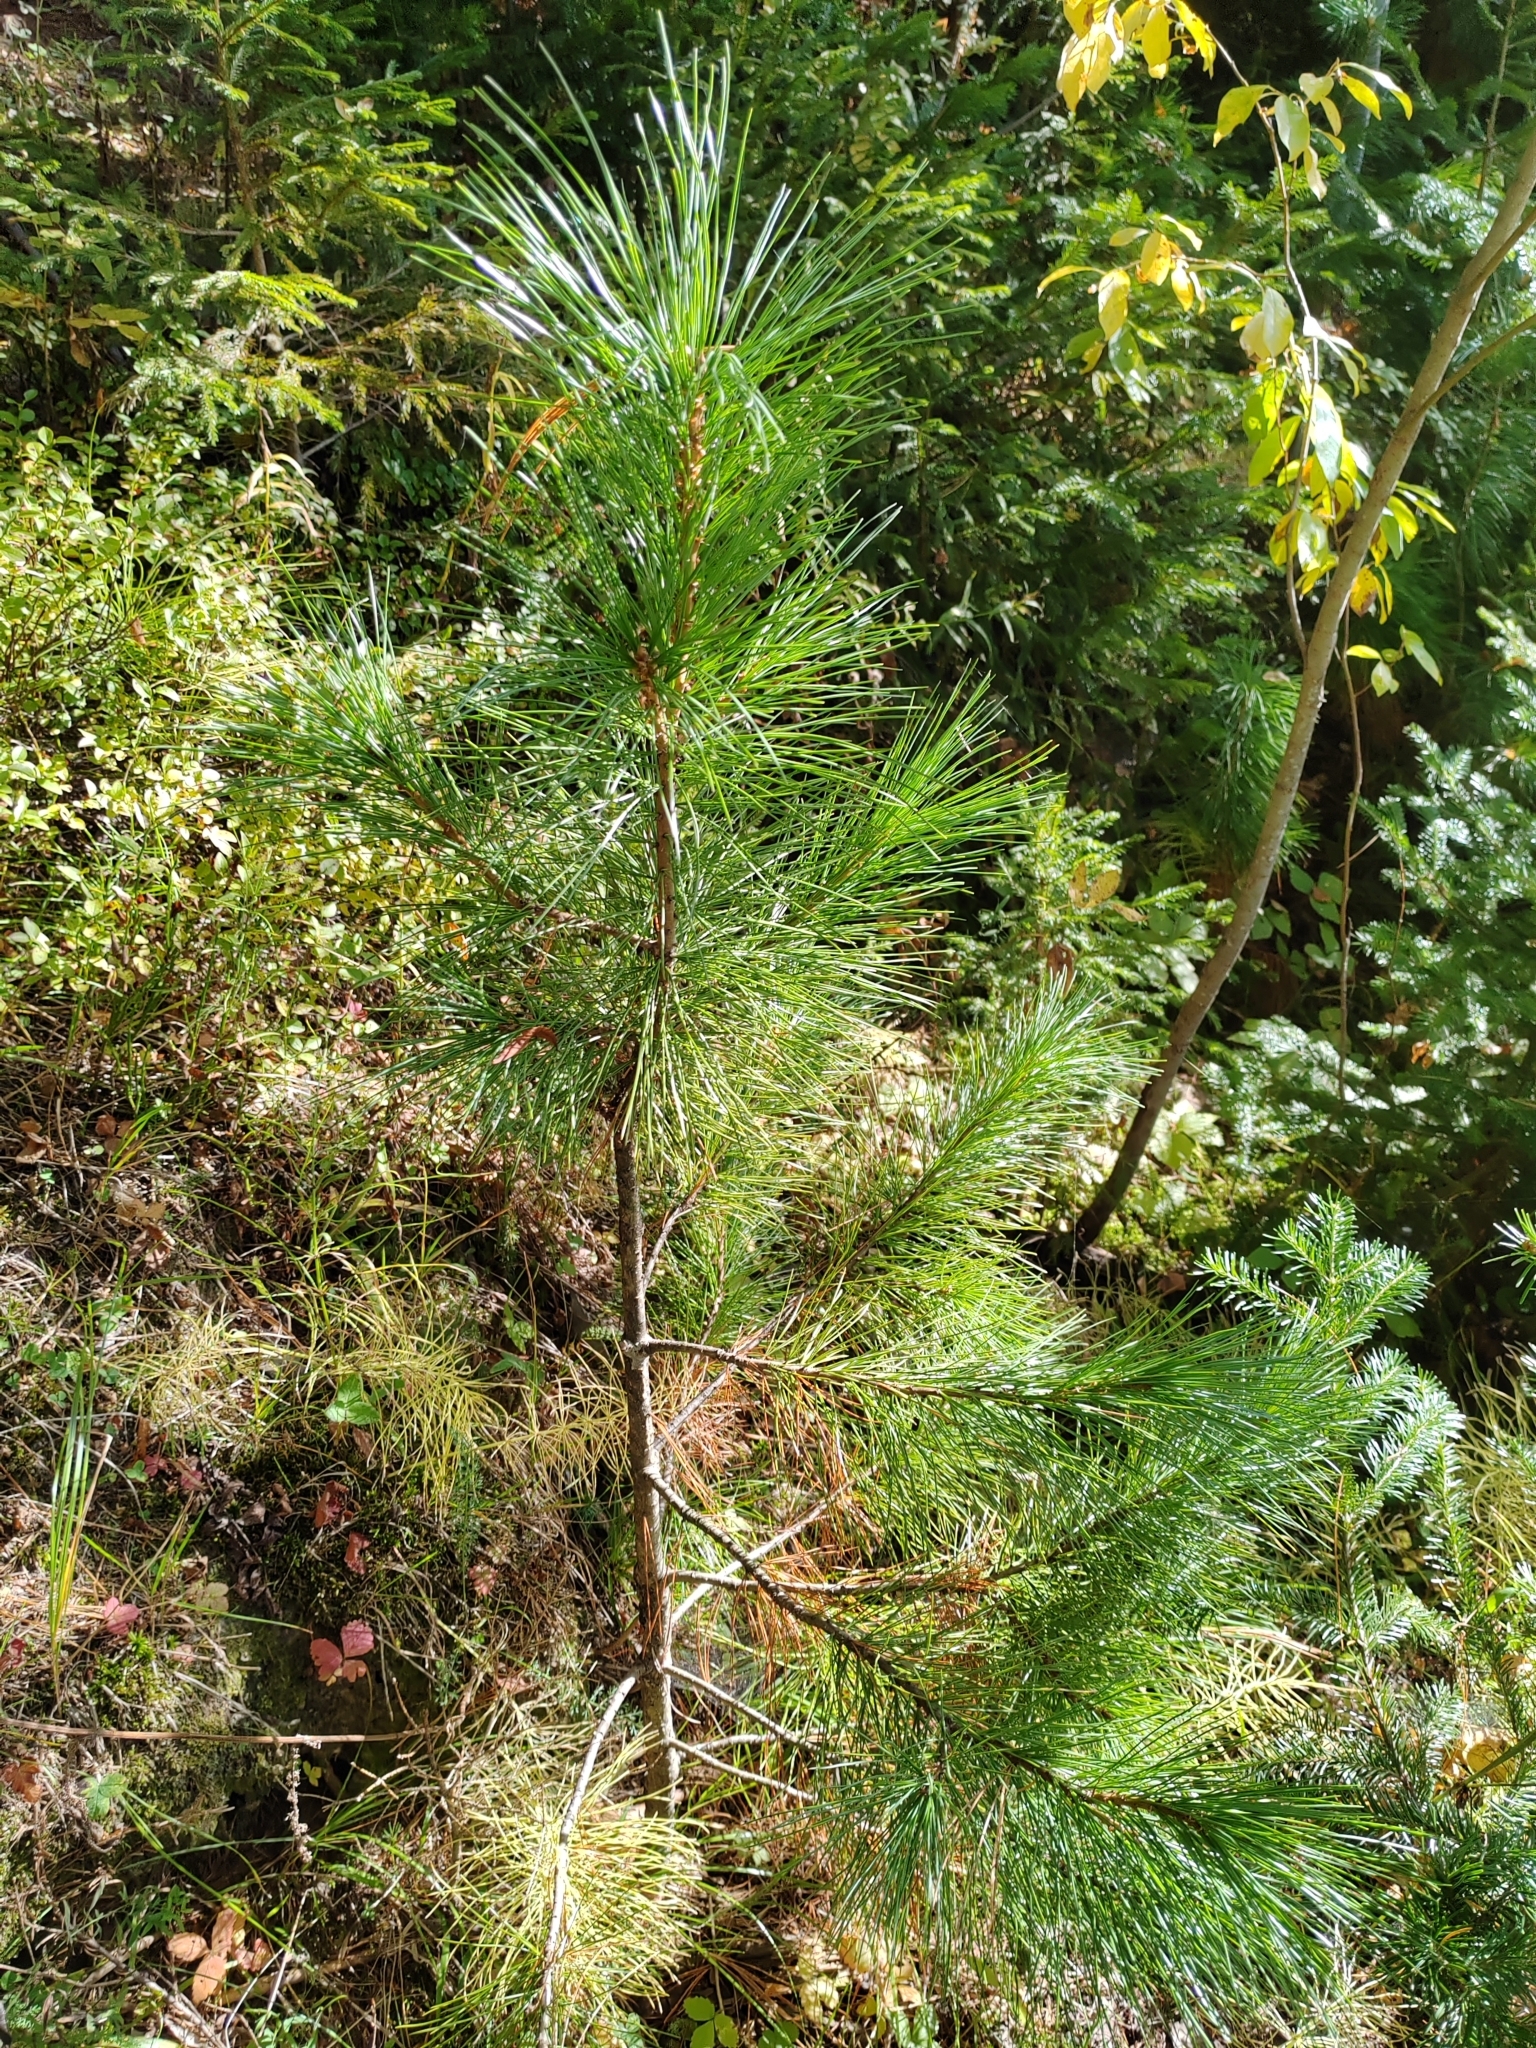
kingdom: Plantae
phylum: Tracheophyta
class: Pinopsida
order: Pinales
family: Pinaceae
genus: Pinus
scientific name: Pinus sibirica
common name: Siberian pine
